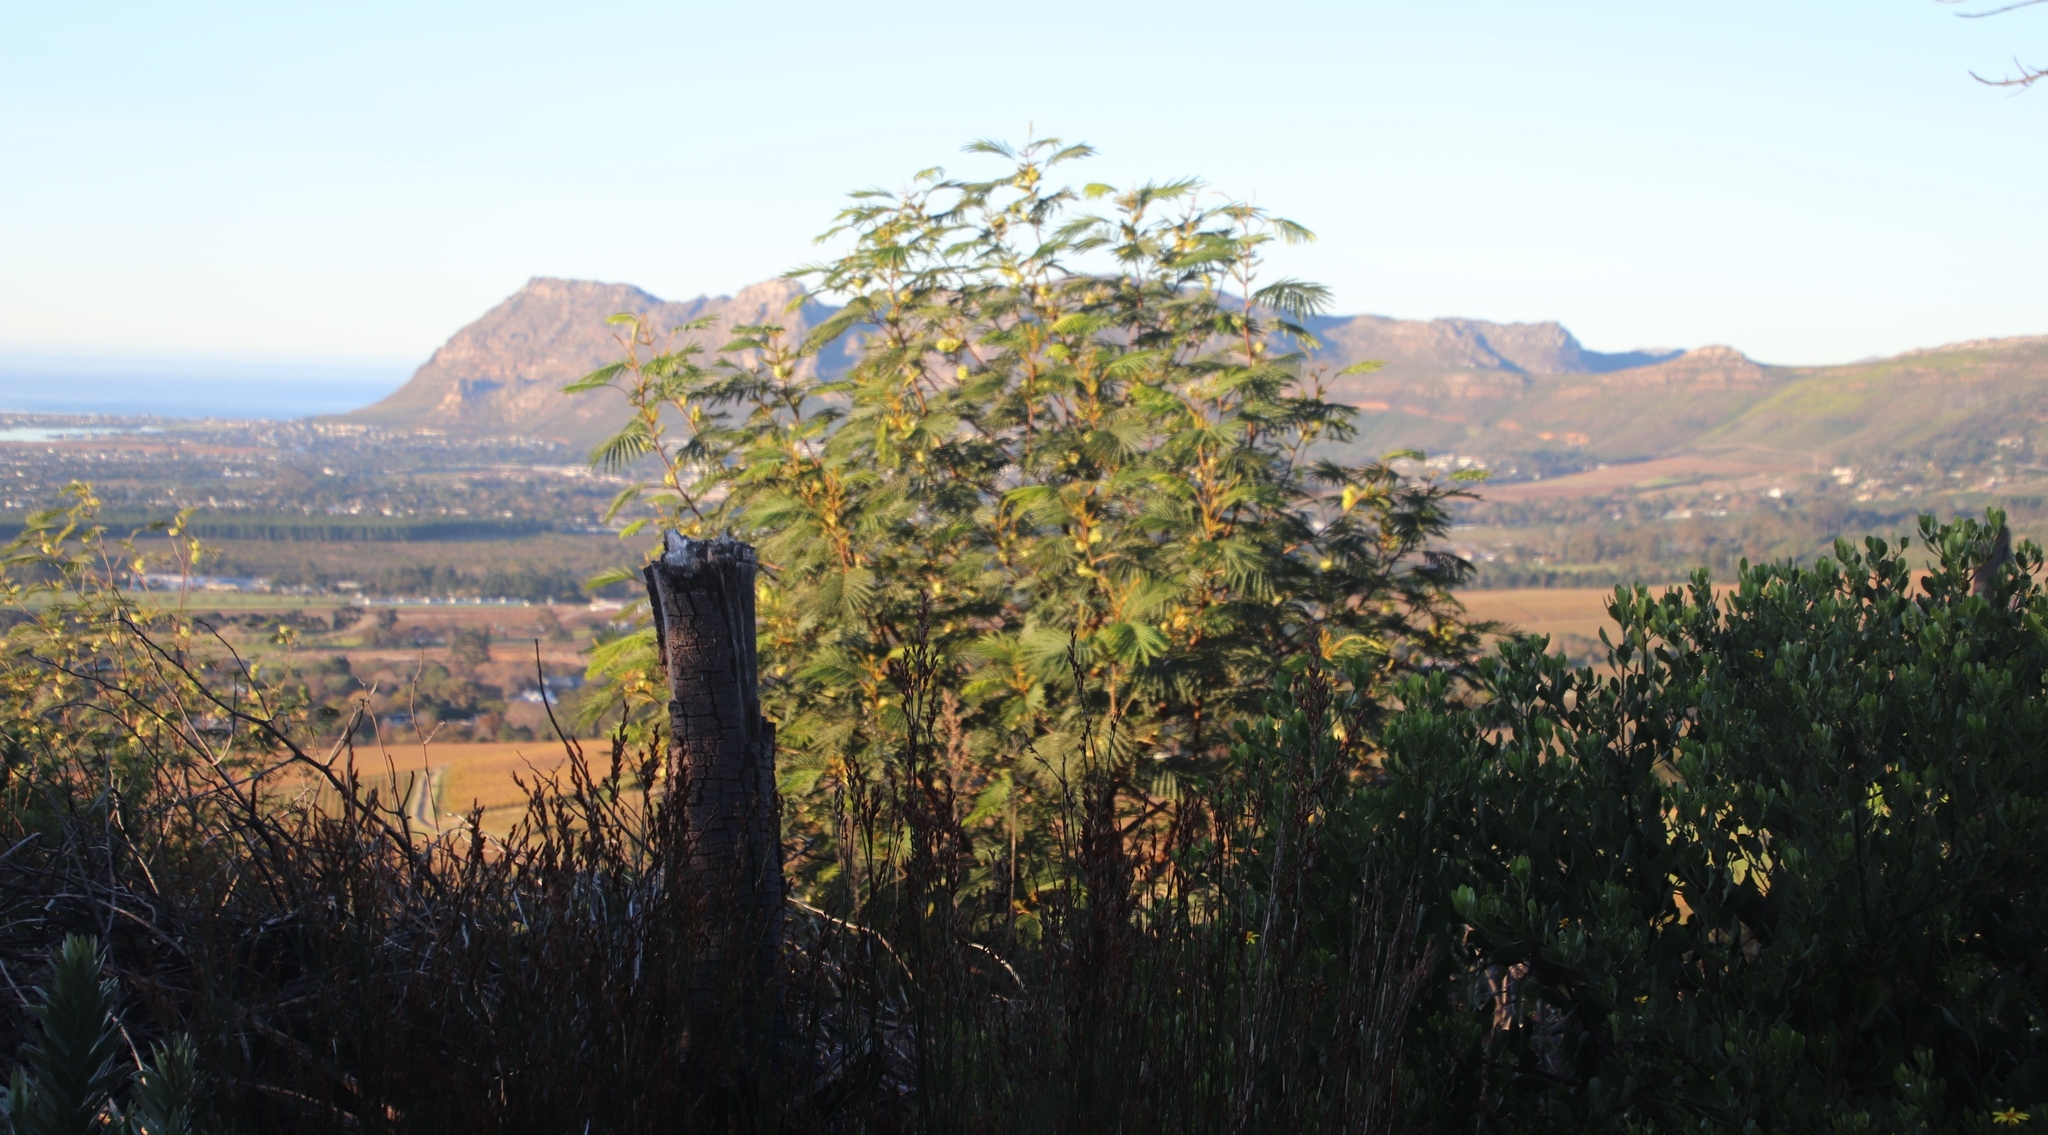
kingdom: Plantae
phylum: Tracheophyta
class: Magnoliopsida
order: Fabales
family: Fabaceae
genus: Paraserianthes
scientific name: Paraserianthes lophantha
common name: Plume albizia
